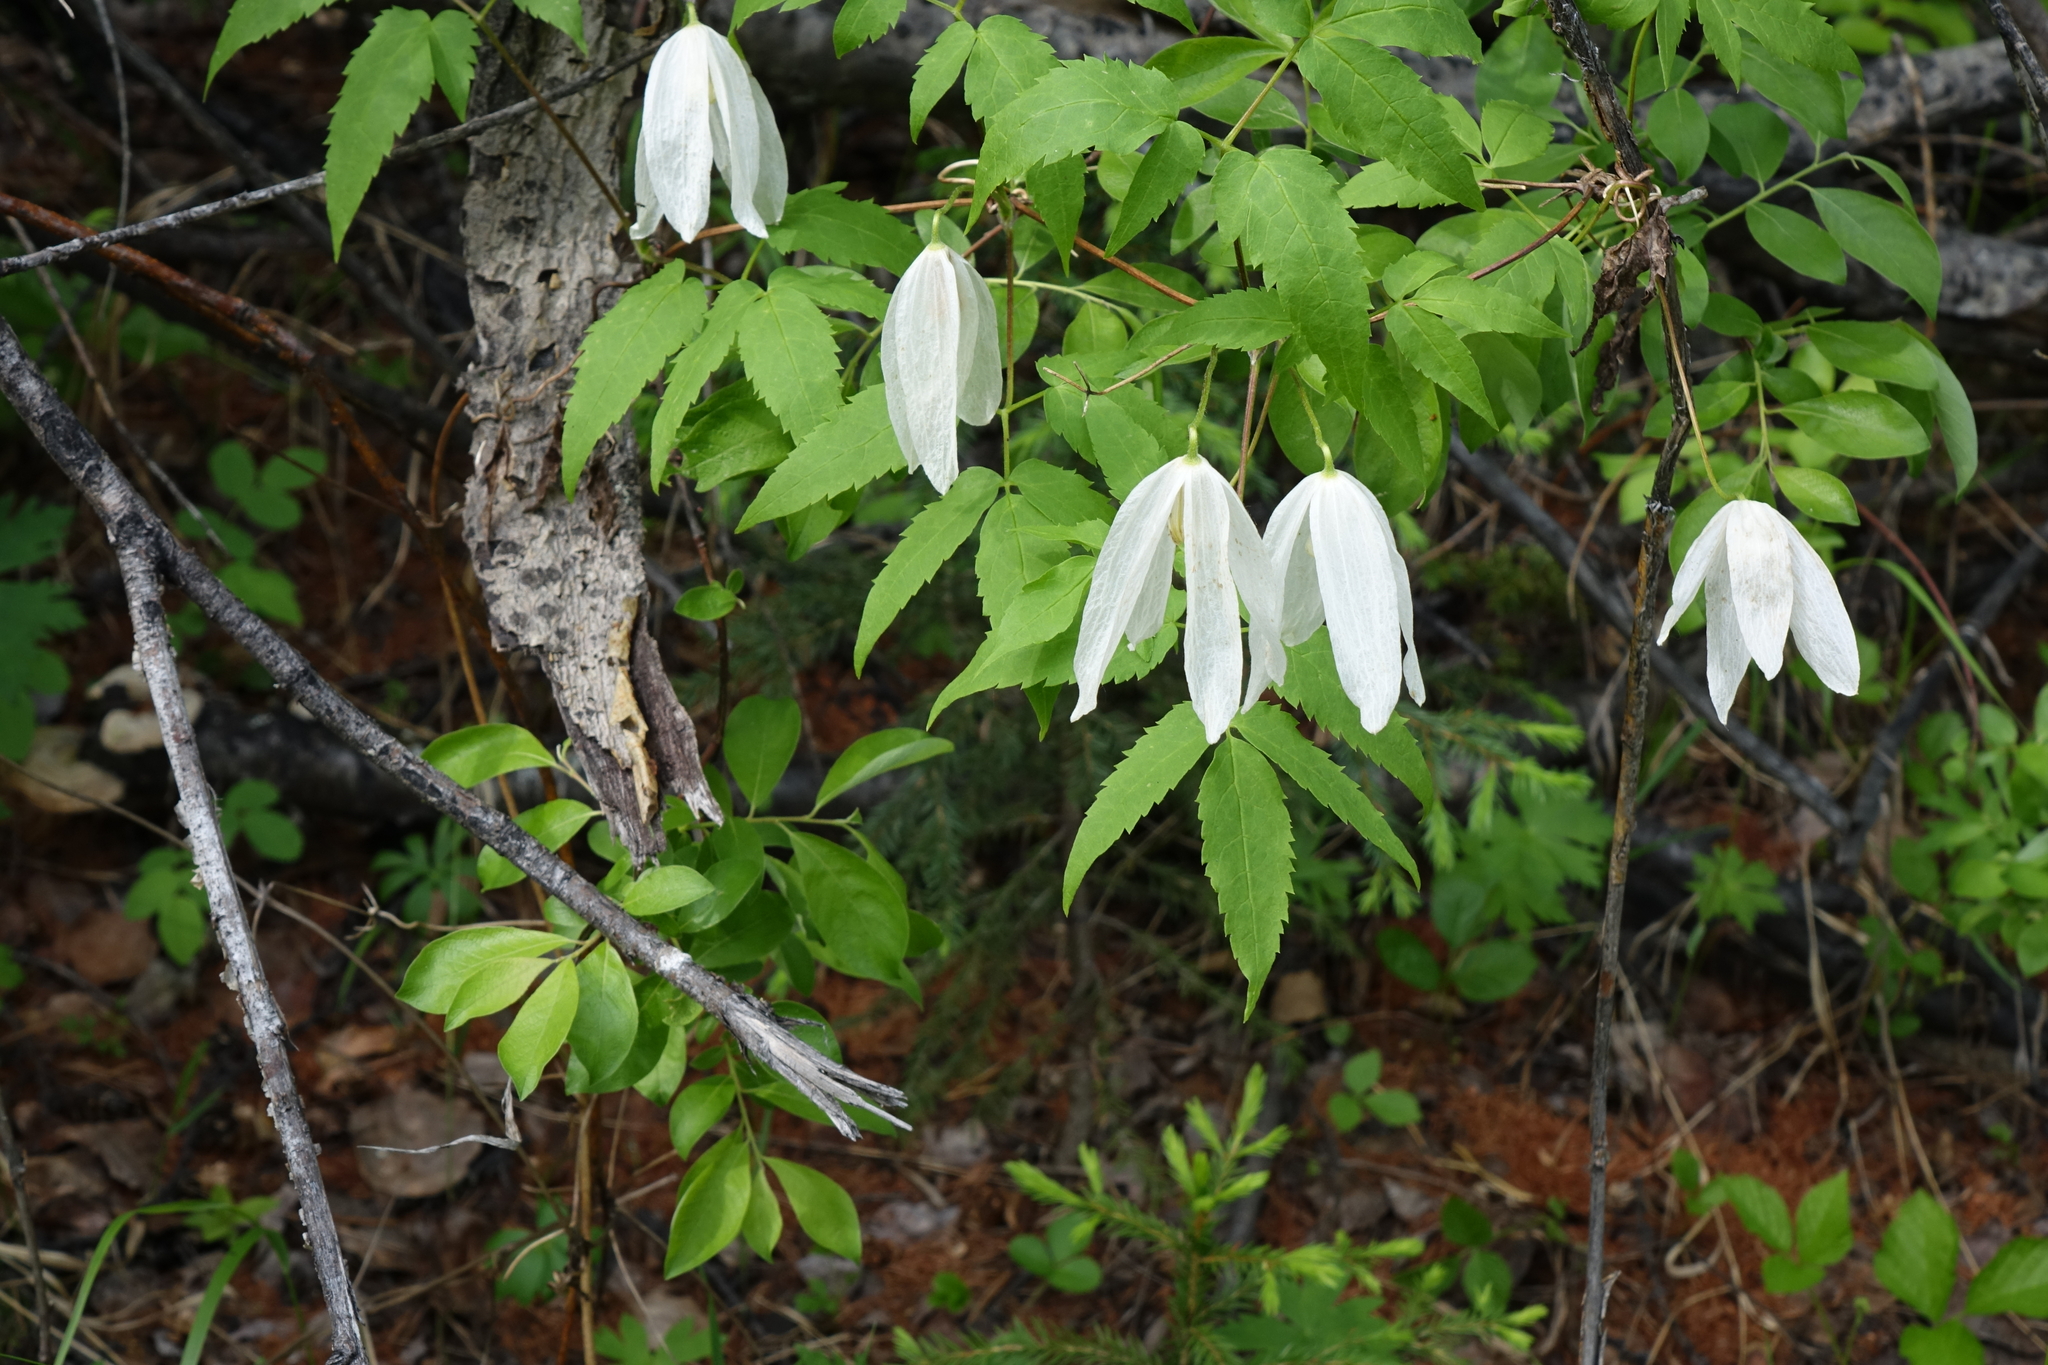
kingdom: Plantae
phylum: Tracheophyta
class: Magnoliopsida
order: Ranunculales
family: Ranunculaceae
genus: Clematis
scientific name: Clematis sibirica
